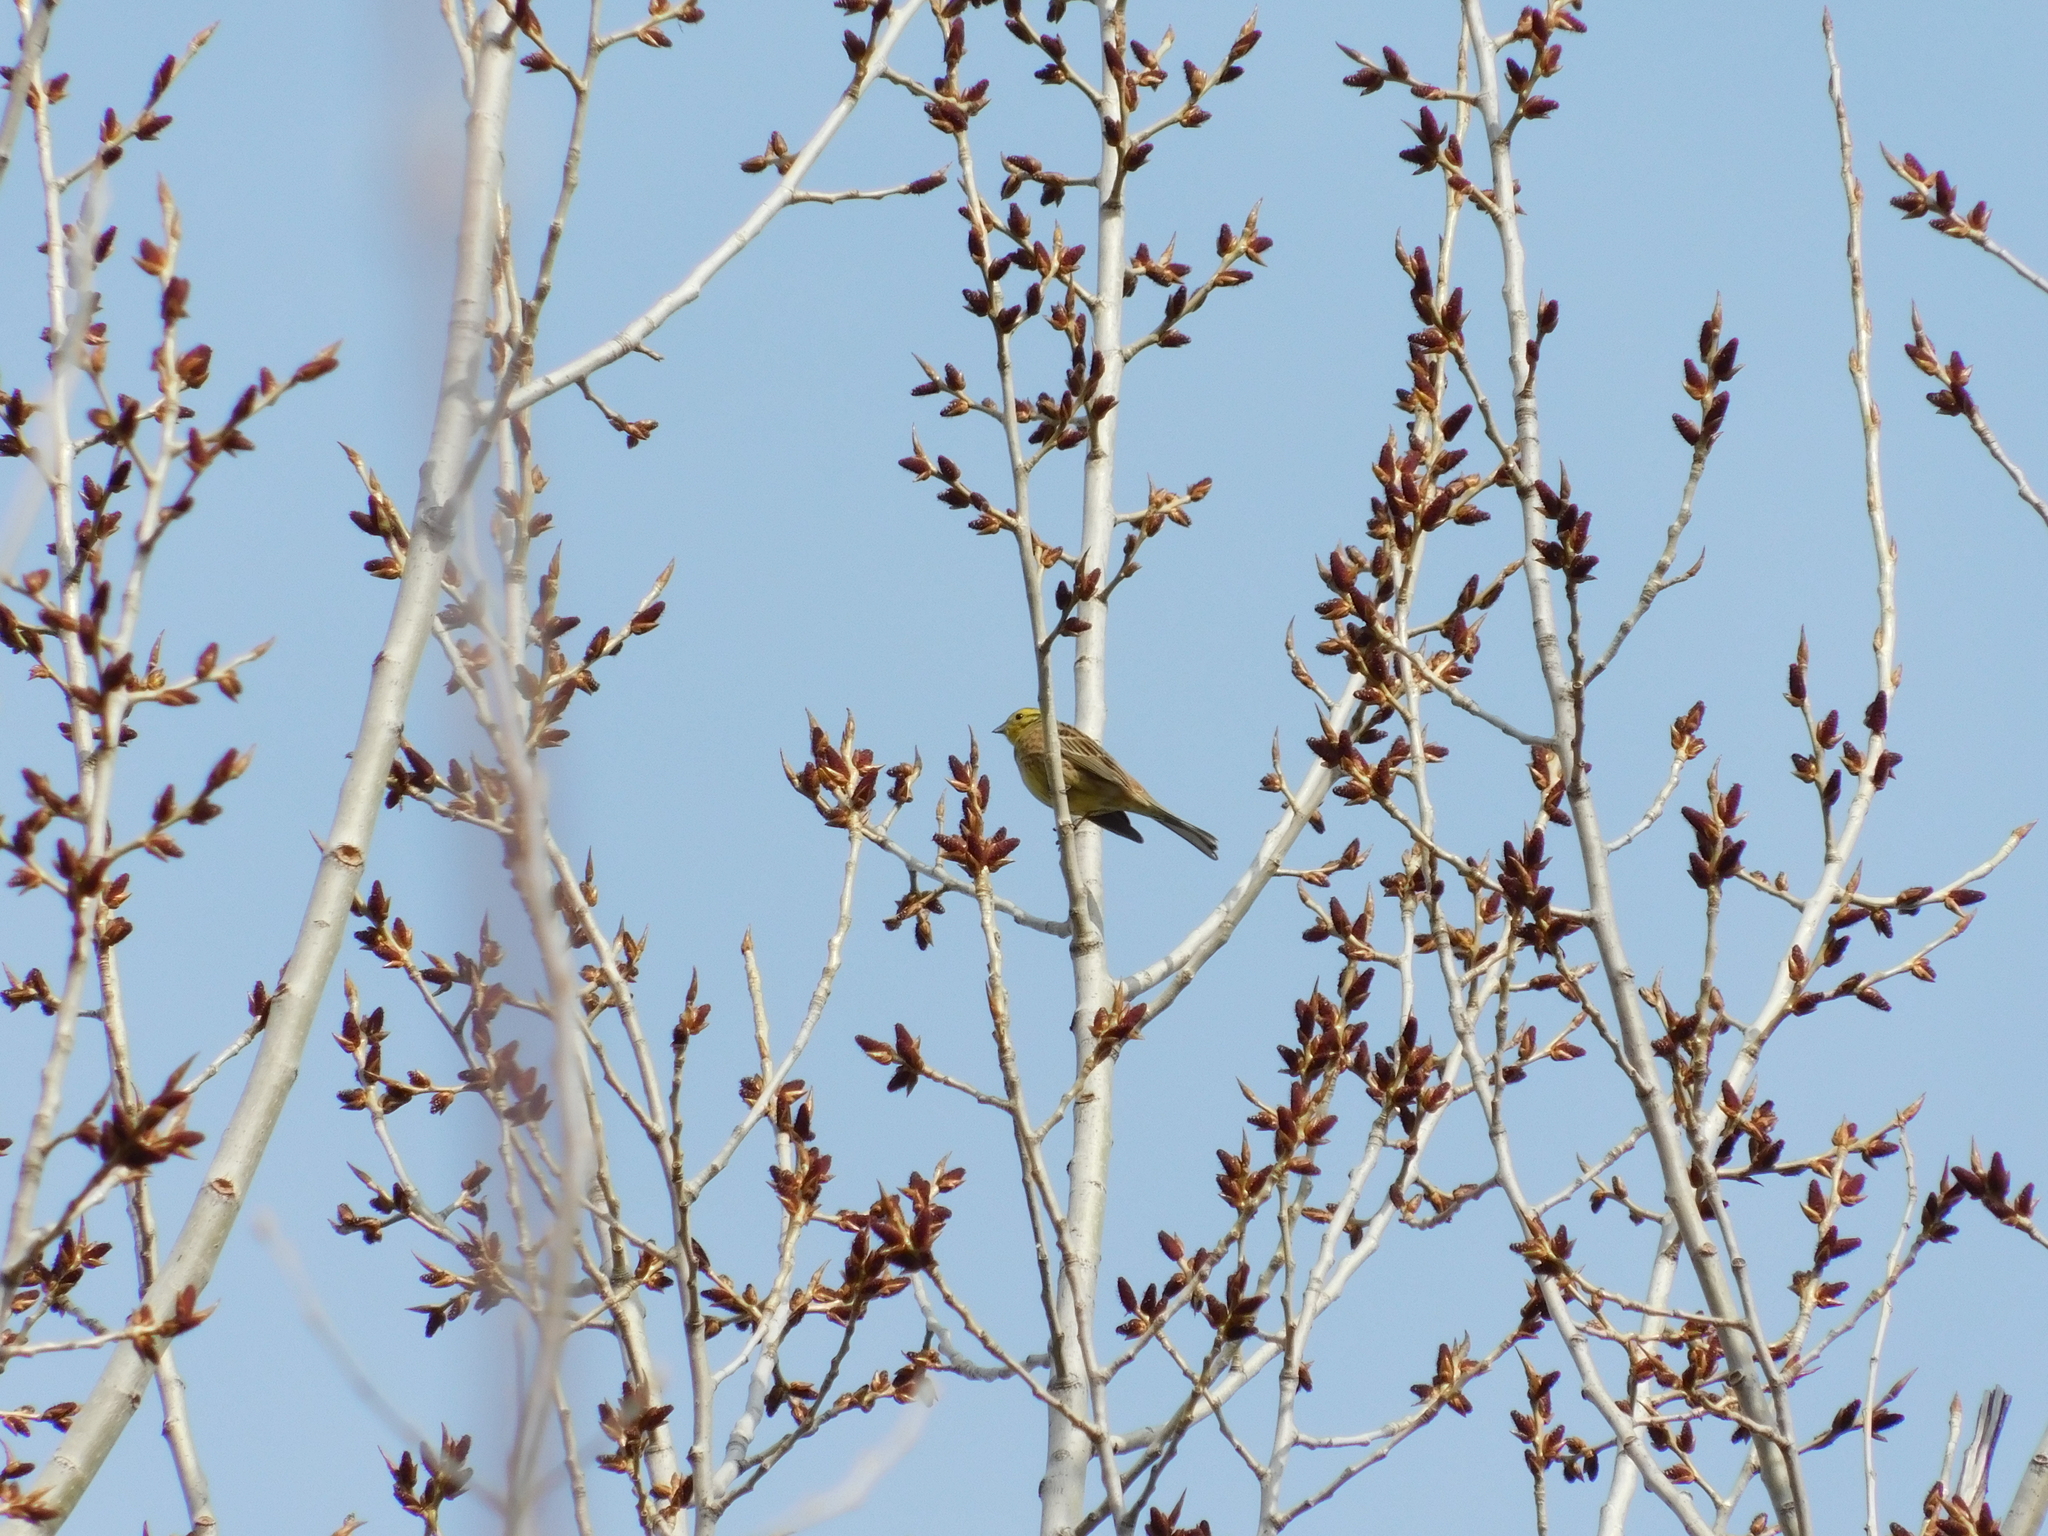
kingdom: Animalia
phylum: Chordata
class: Aves
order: Passeriformes
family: Emberizidae
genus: Emberiza
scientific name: Emberiza citrinella
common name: Yellowhammer
